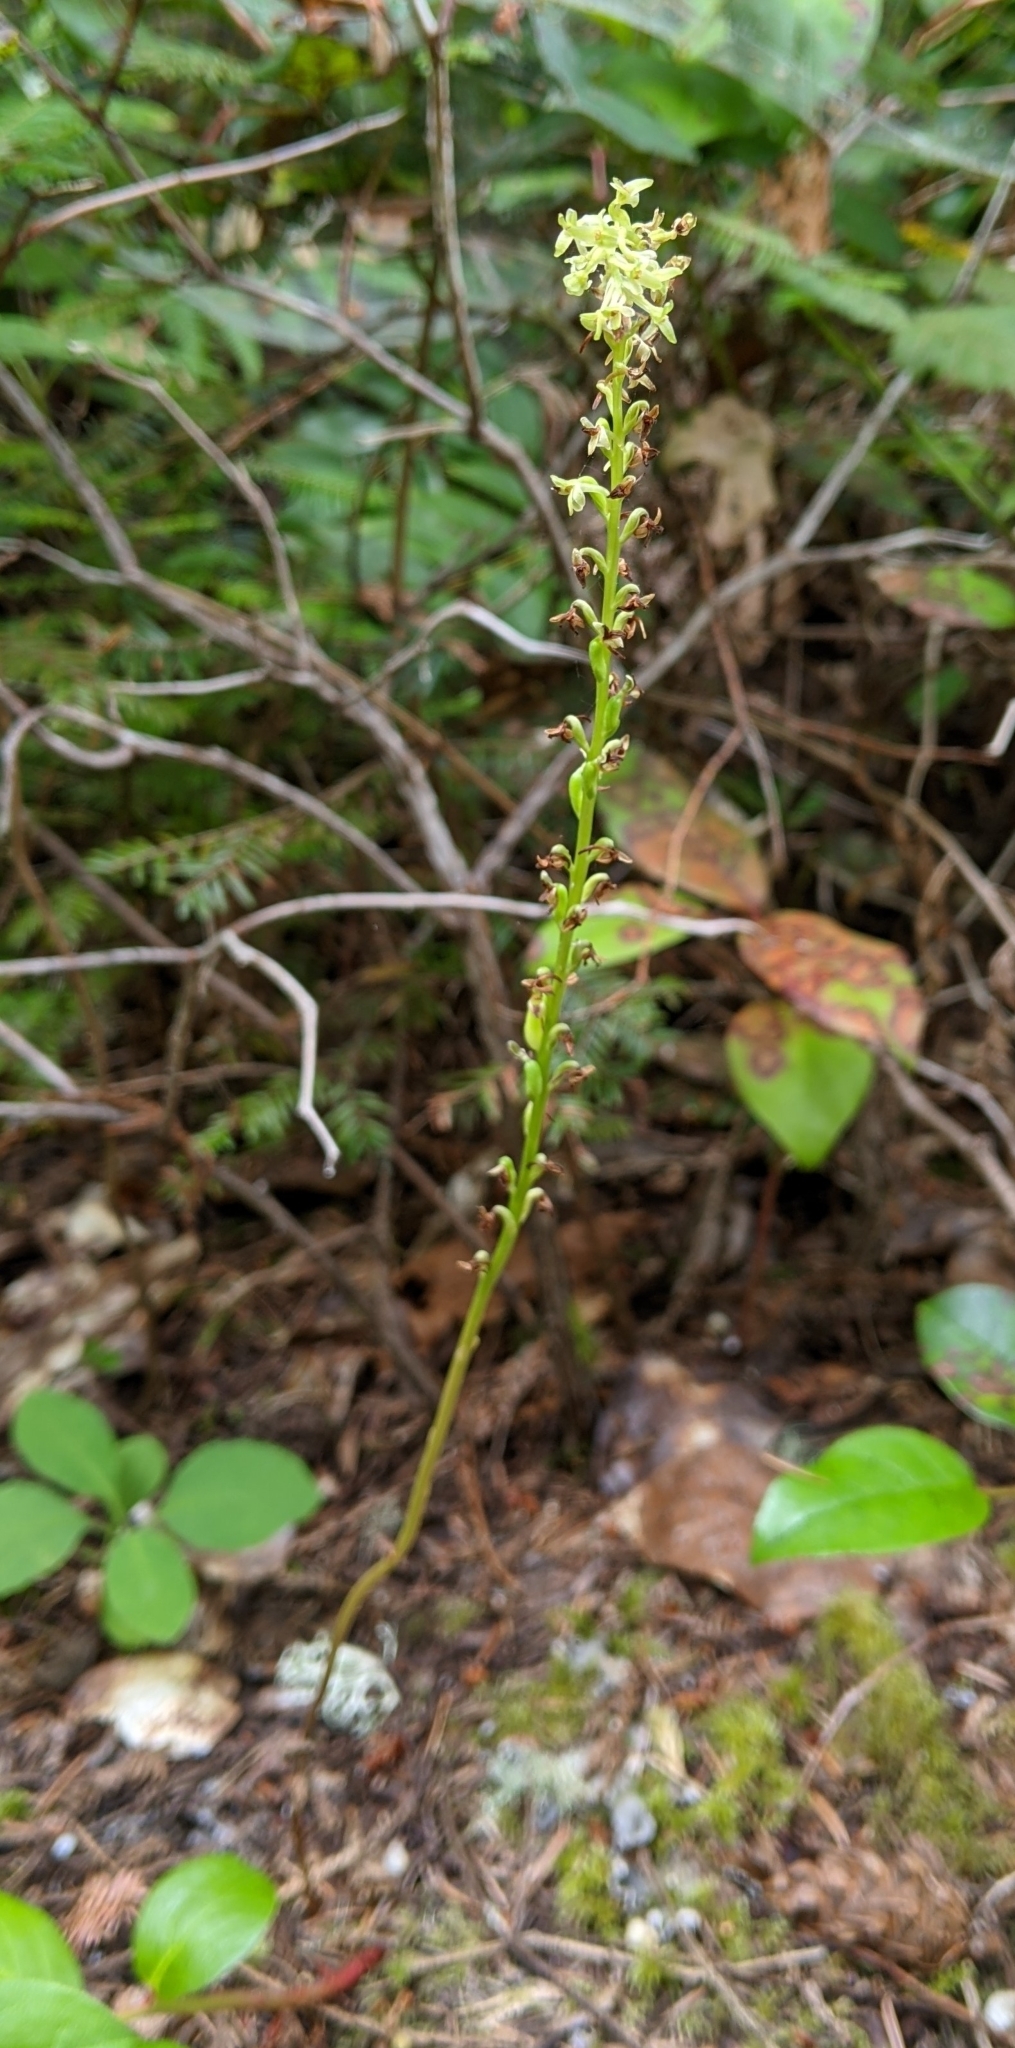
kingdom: Plantae
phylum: Tracheophyta
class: Liliopsida
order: Asparagales
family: Orchidaceae
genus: Platanthera
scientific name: Platanthera unalascensis
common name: Alaska bog orchid
